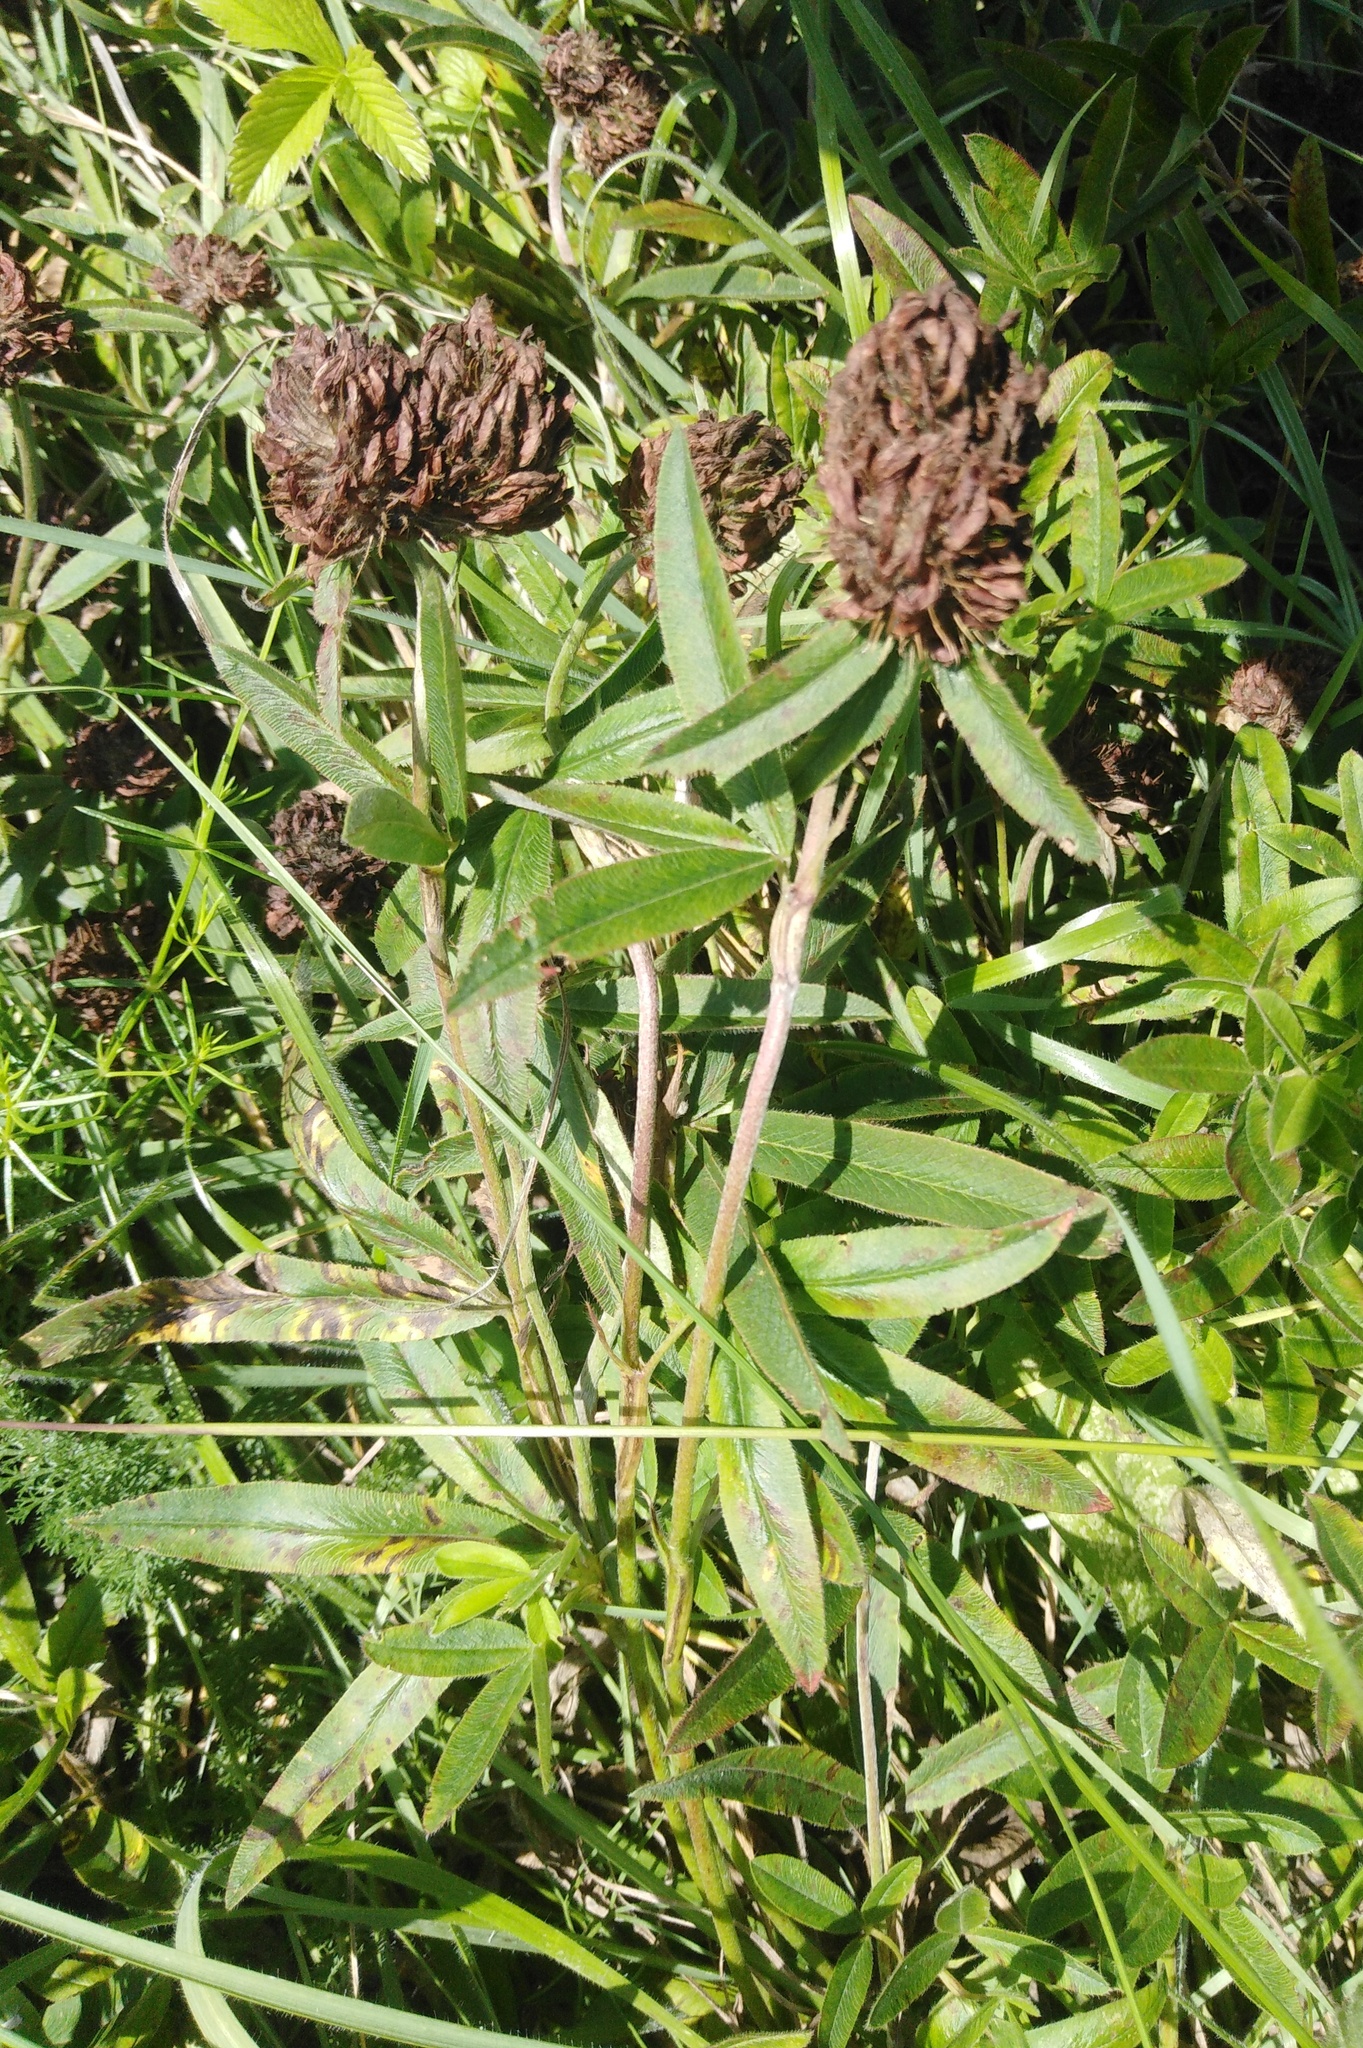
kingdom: Plantae
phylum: Tracheophyta
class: Magnoliopsida
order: Fabales
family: Fabaceae
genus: Trifolium
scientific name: Trifolium alpestre
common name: Owl-head clover
